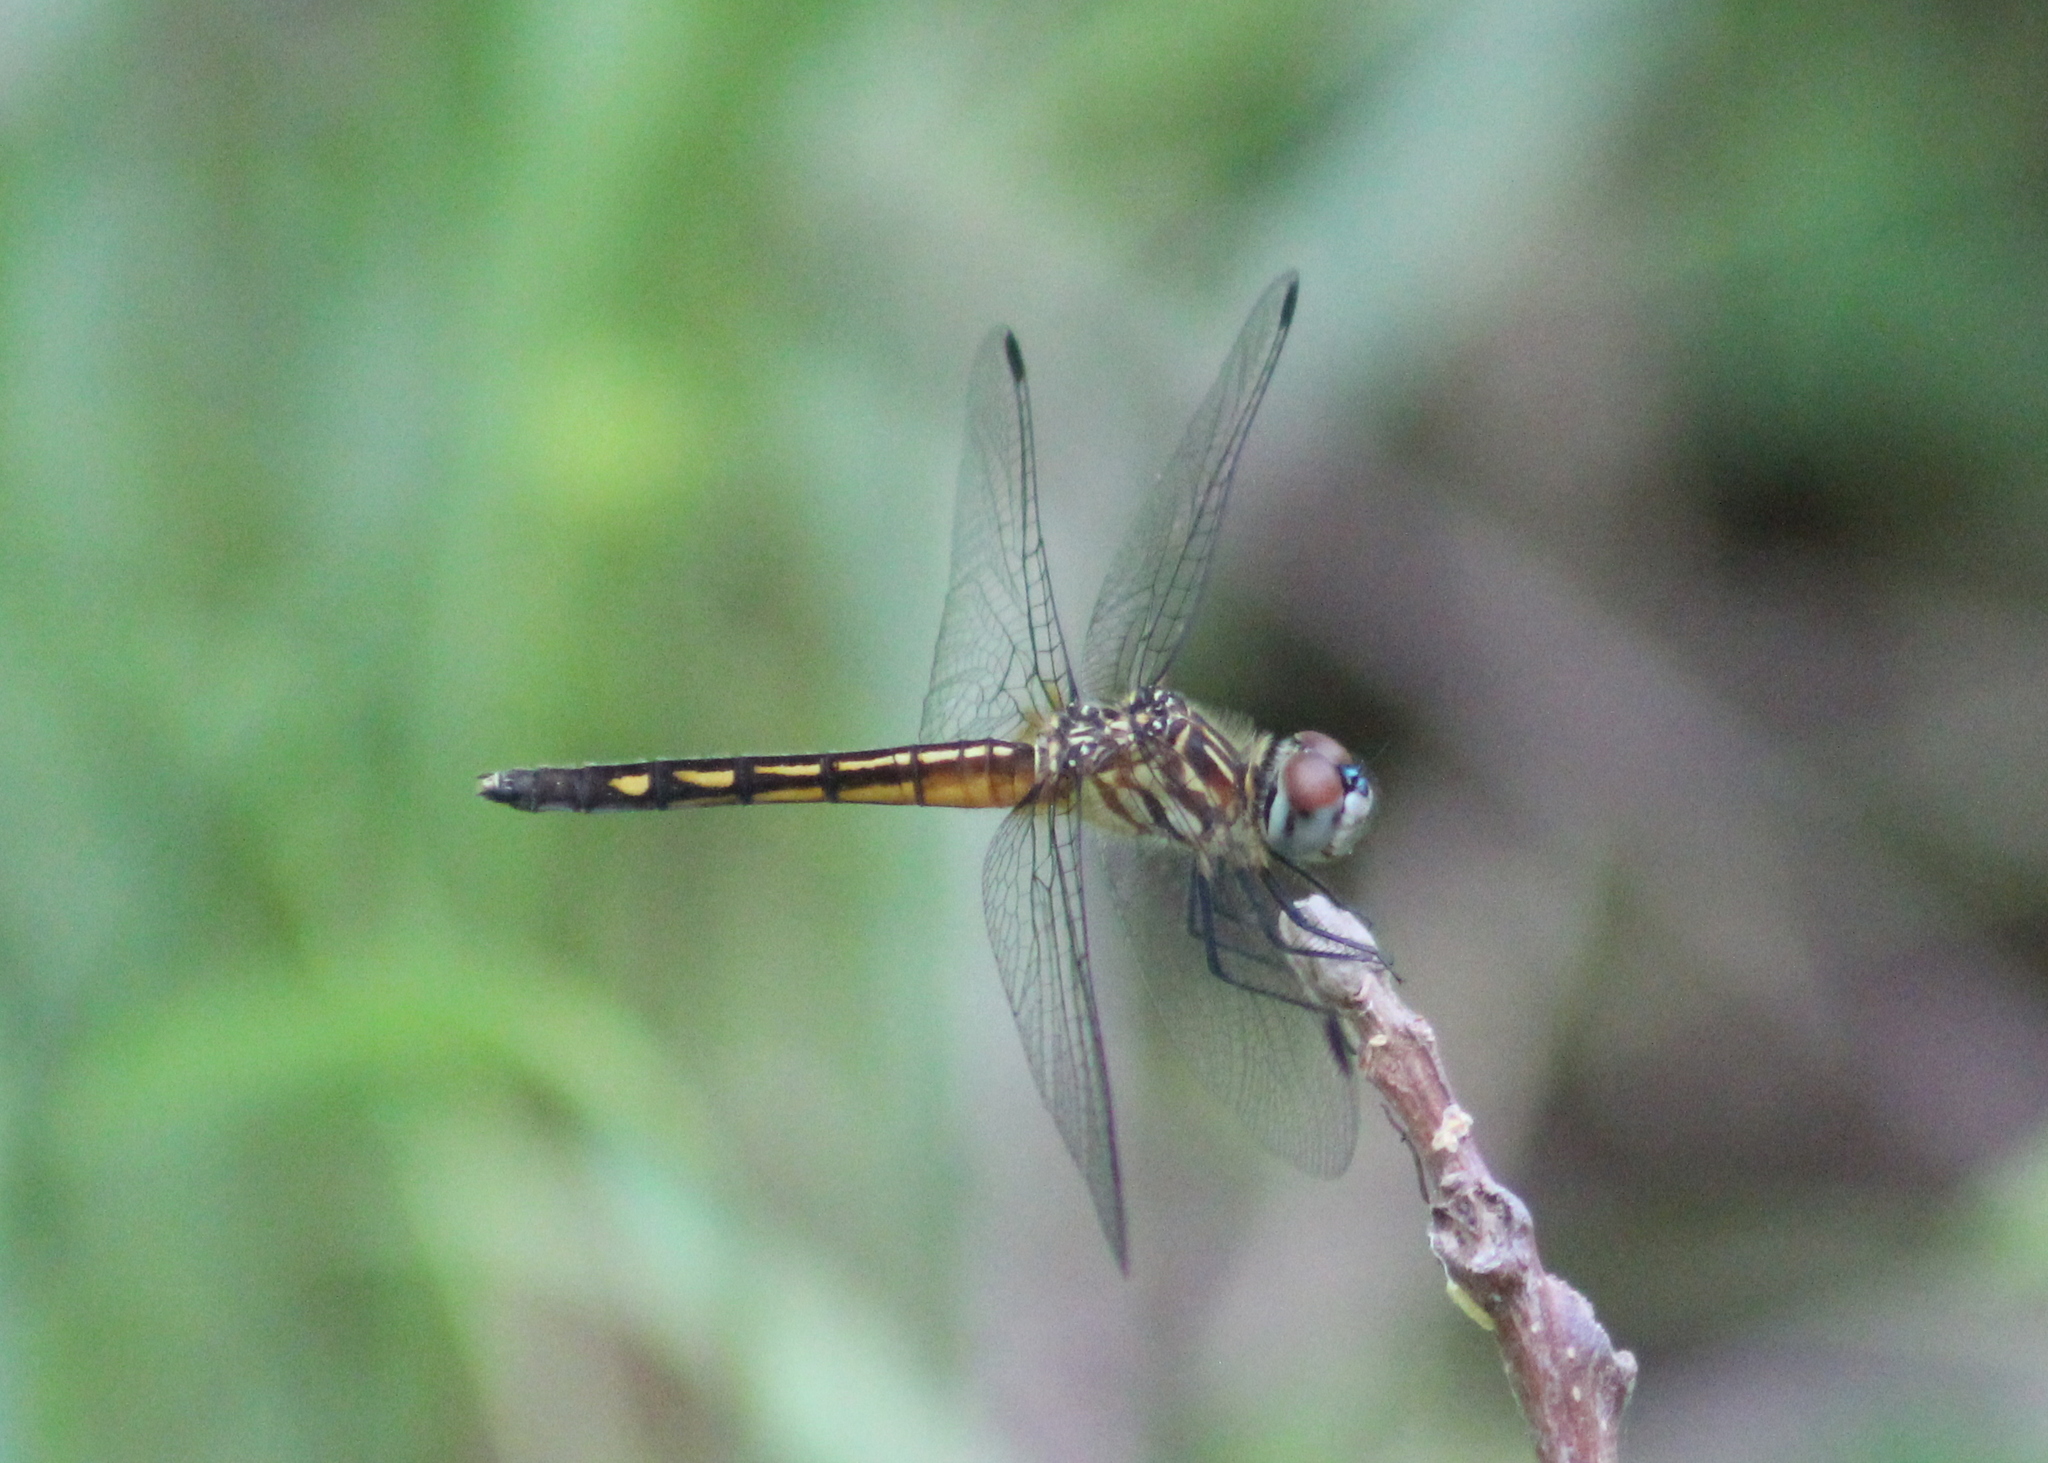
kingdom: Animalia
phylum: Arthropoda
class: Insecta
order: Odonata
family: Libellulidae
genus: Pachydiplax
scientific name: Pachydiplax longipennis
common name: Blue dasher
